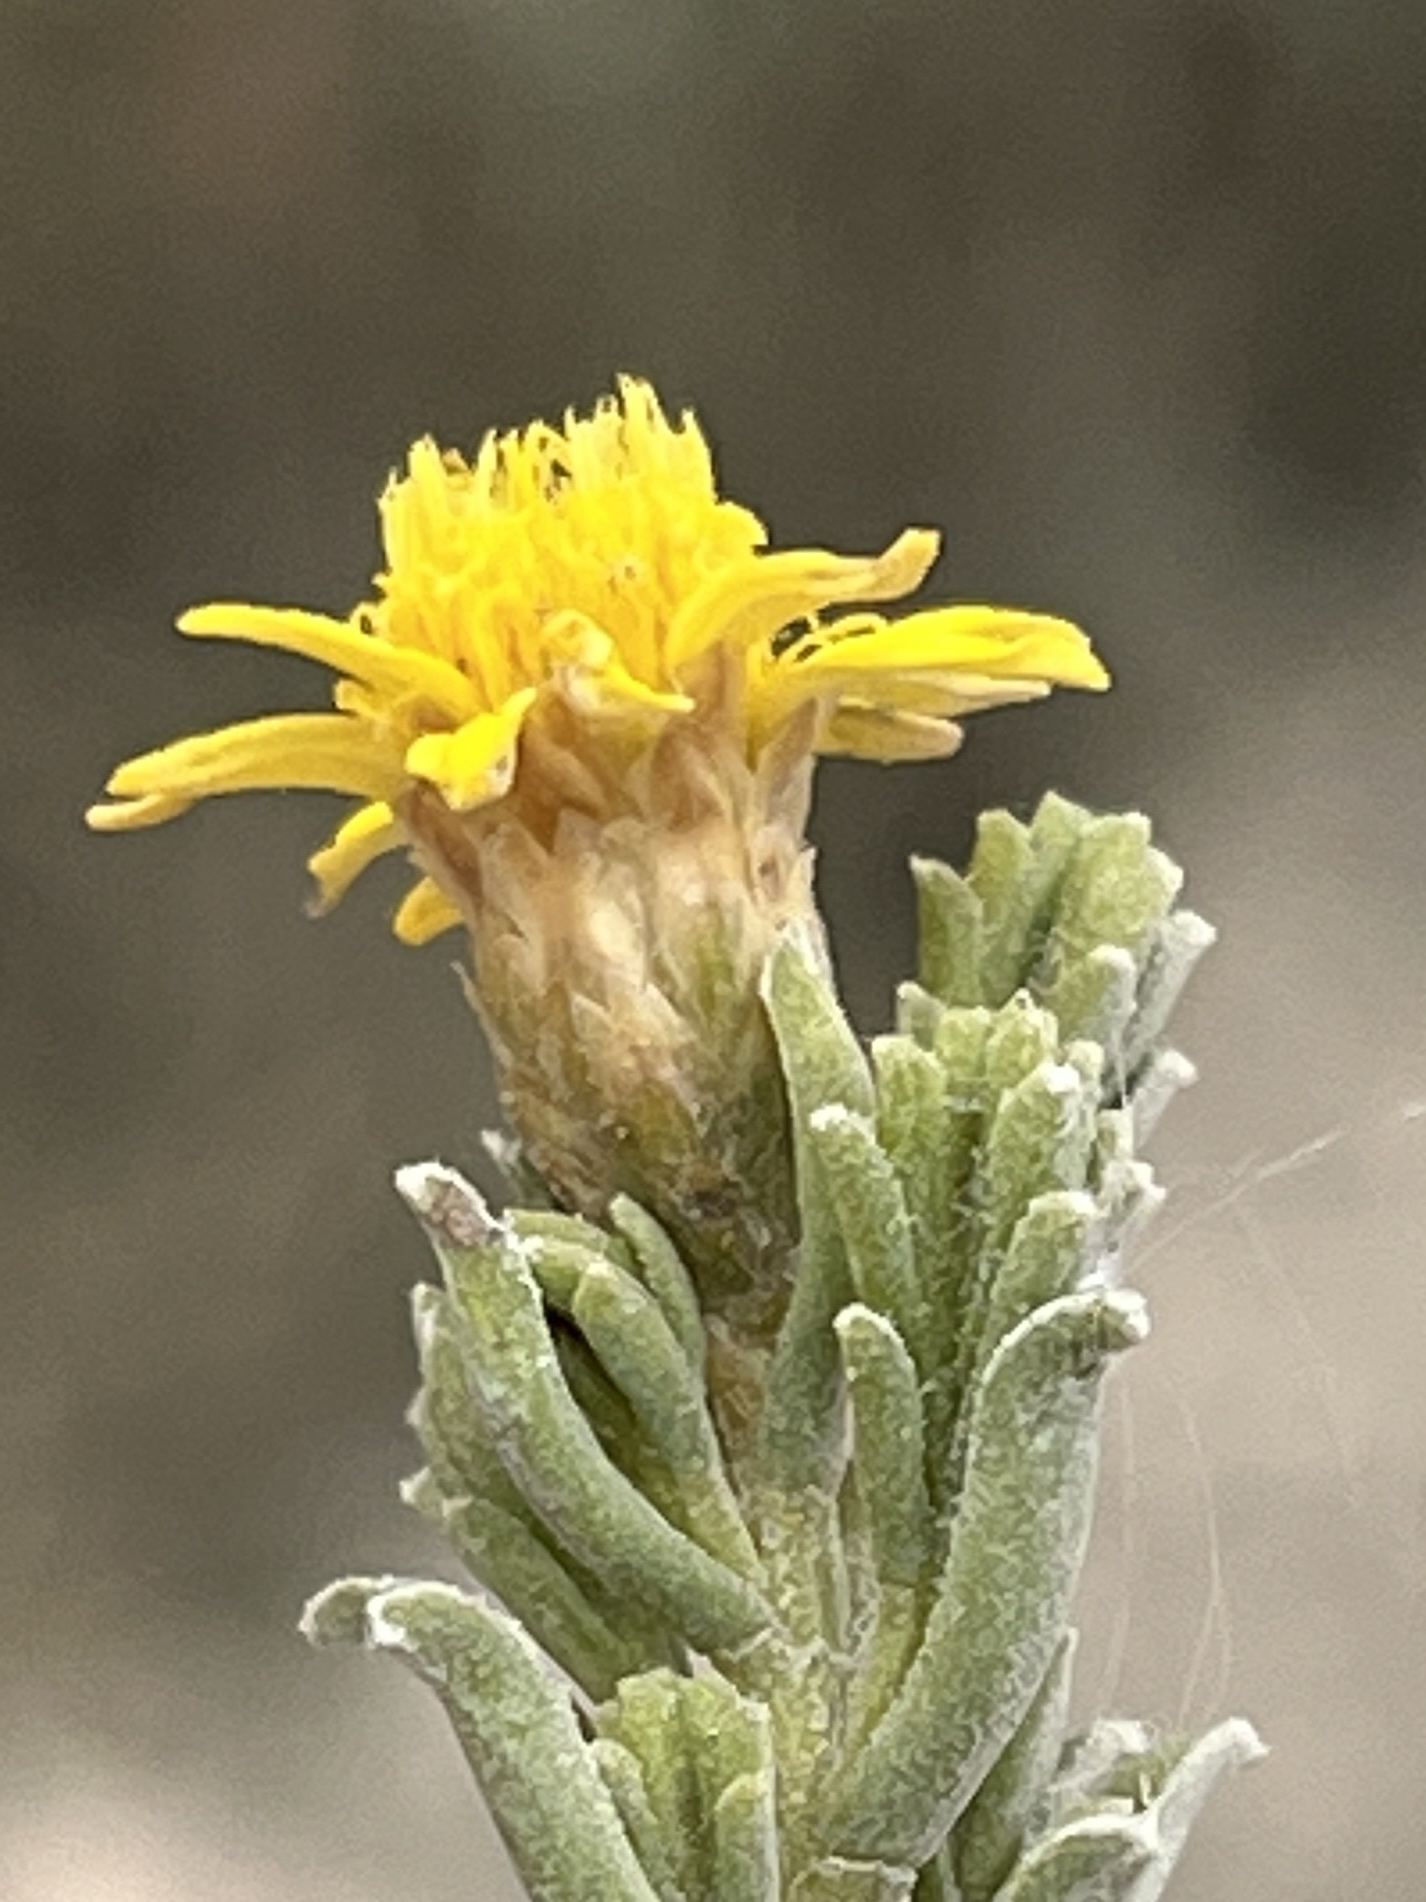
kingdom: Plantae
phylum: Tracheophyta
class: Magnoliopsida
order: Asterales
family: Asteraceae
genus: Oedera
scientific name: Oedera uniflora
